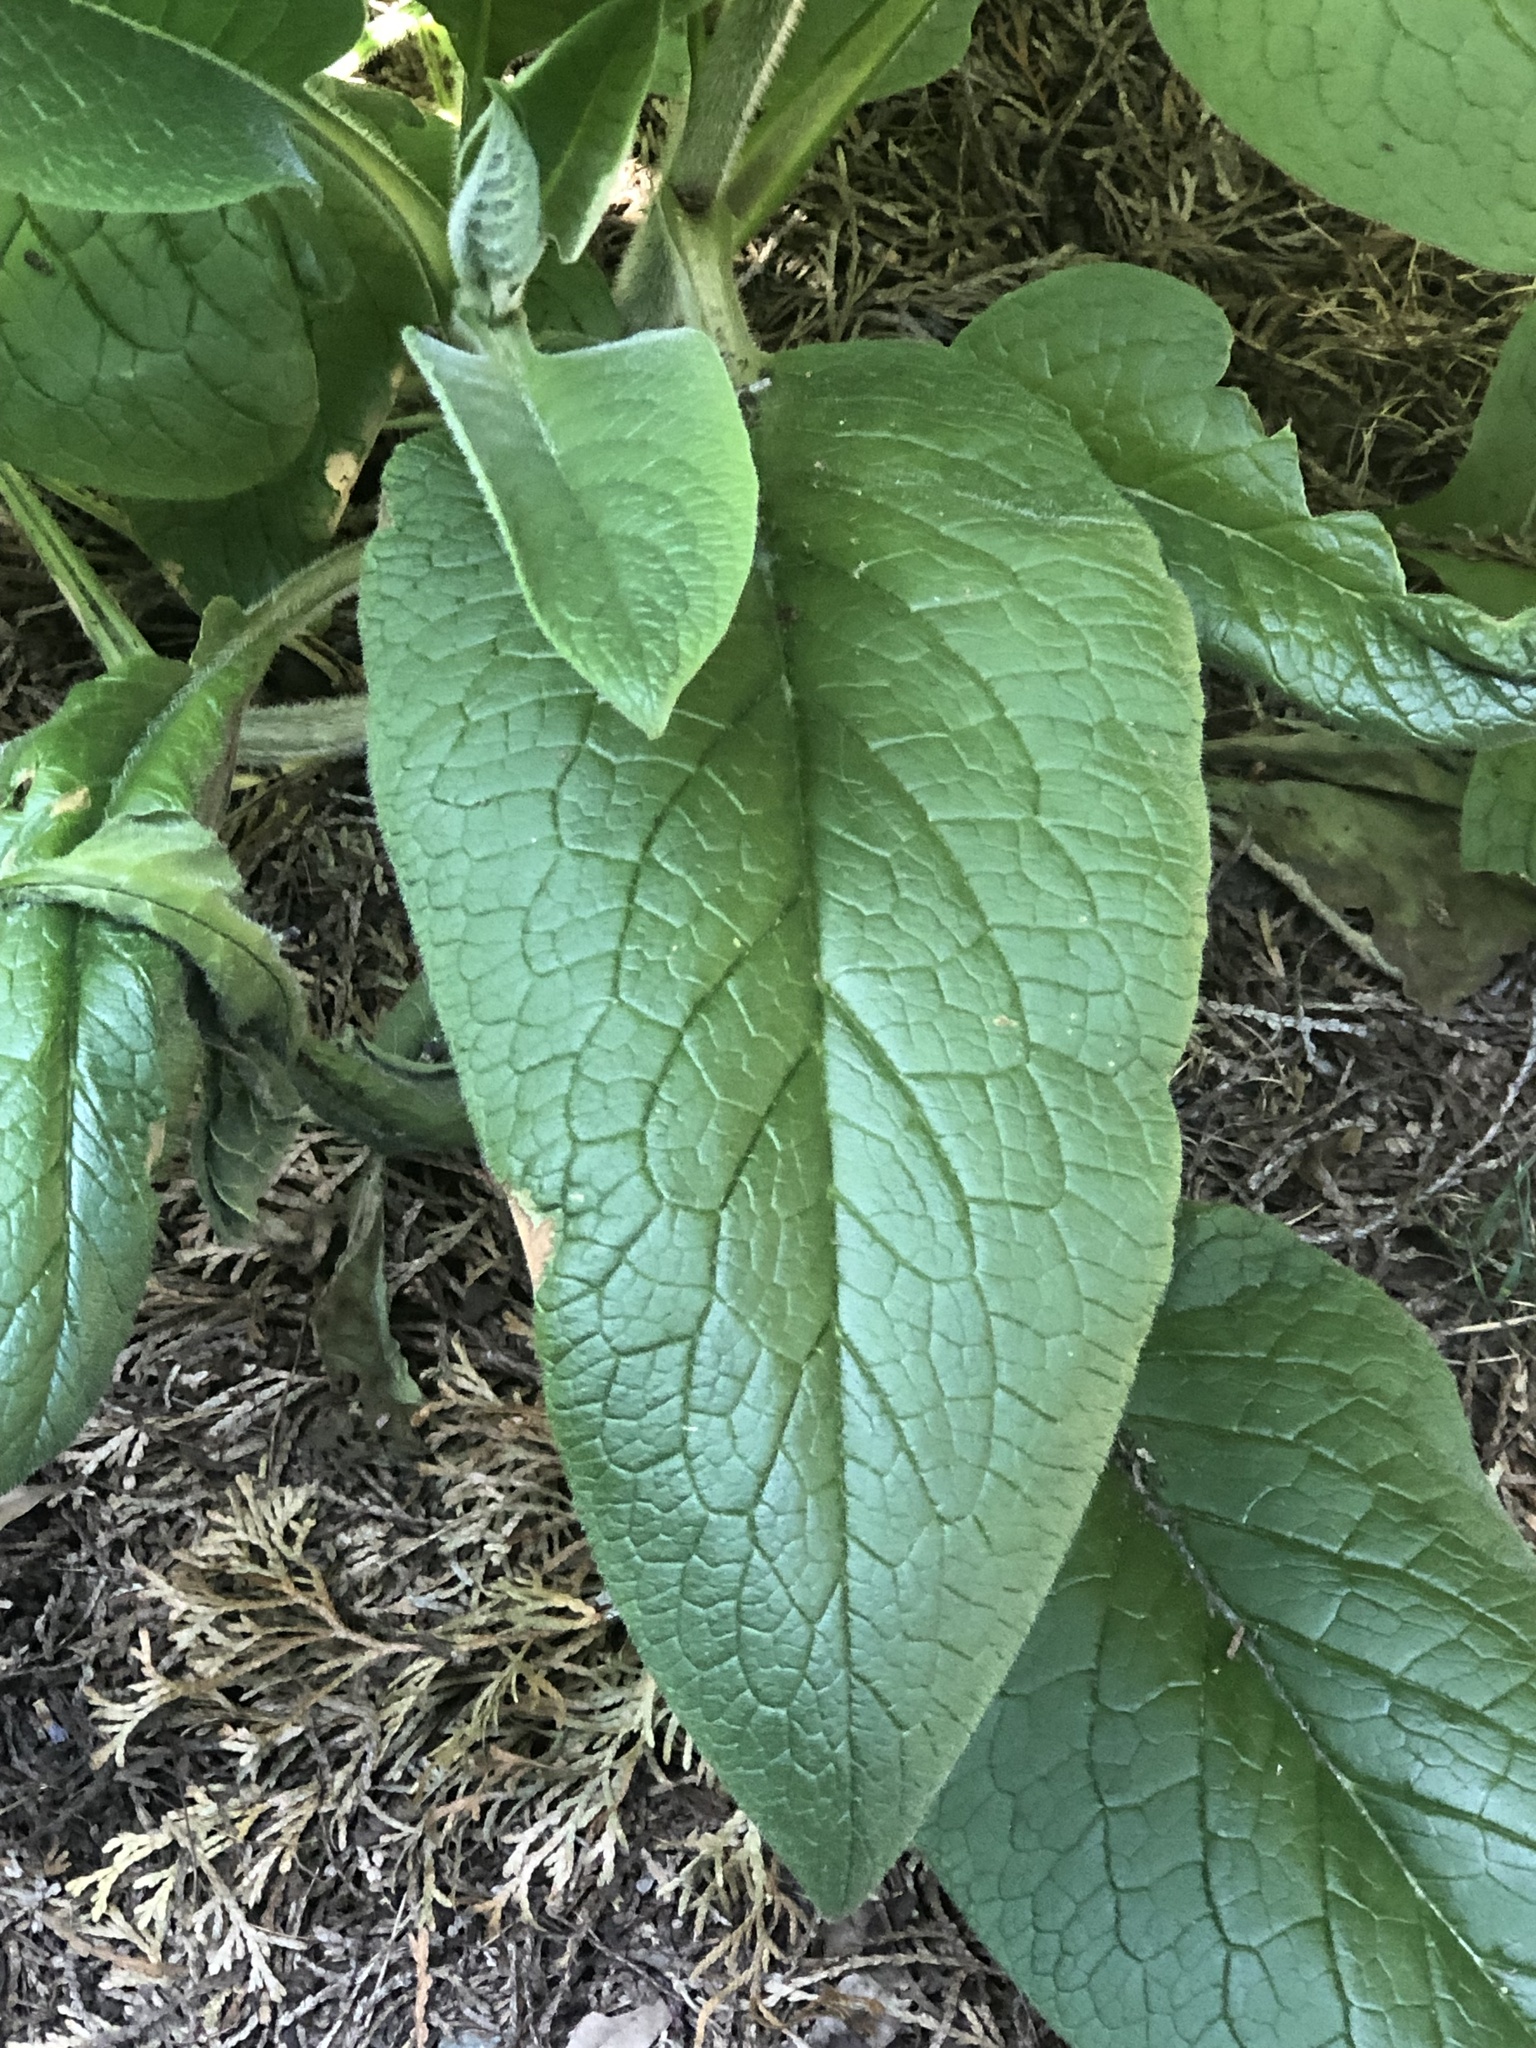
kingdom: Plantae
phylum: Tracheophyta
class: Magnoliopsida
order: Boraginales
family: Boraginaceae
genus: Symphytum
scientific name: Symphytum officinale
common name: Common comfrey
